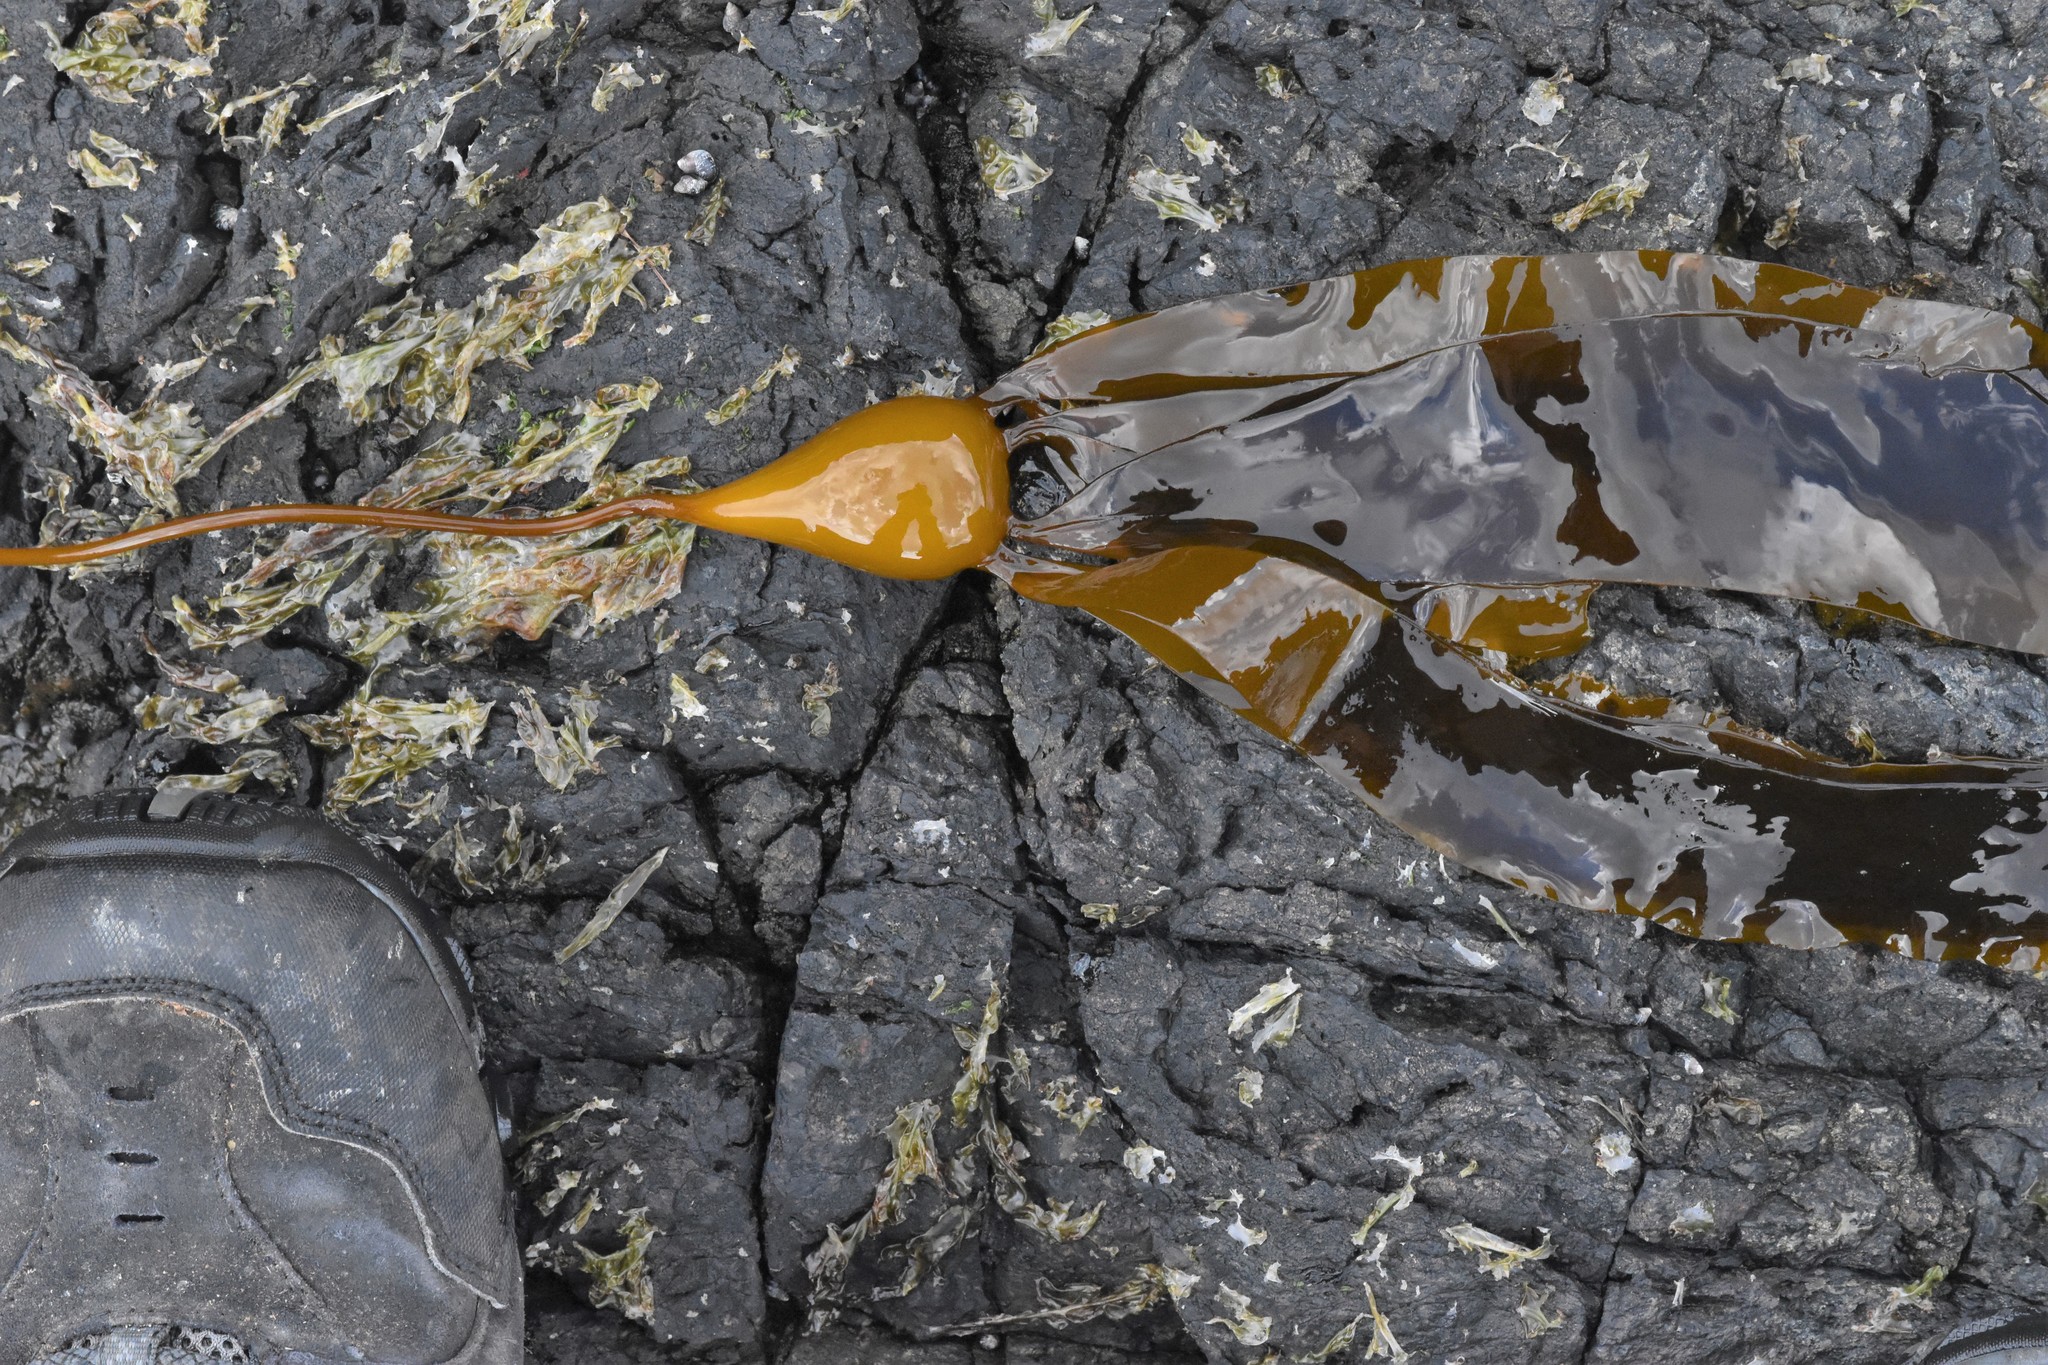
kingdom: Chromista
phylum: Ochrophyta
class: Phaeophyceae
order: Laminariales
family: Laminariaceae
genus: Nereocystis
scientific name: Nereocystis luetkeana
